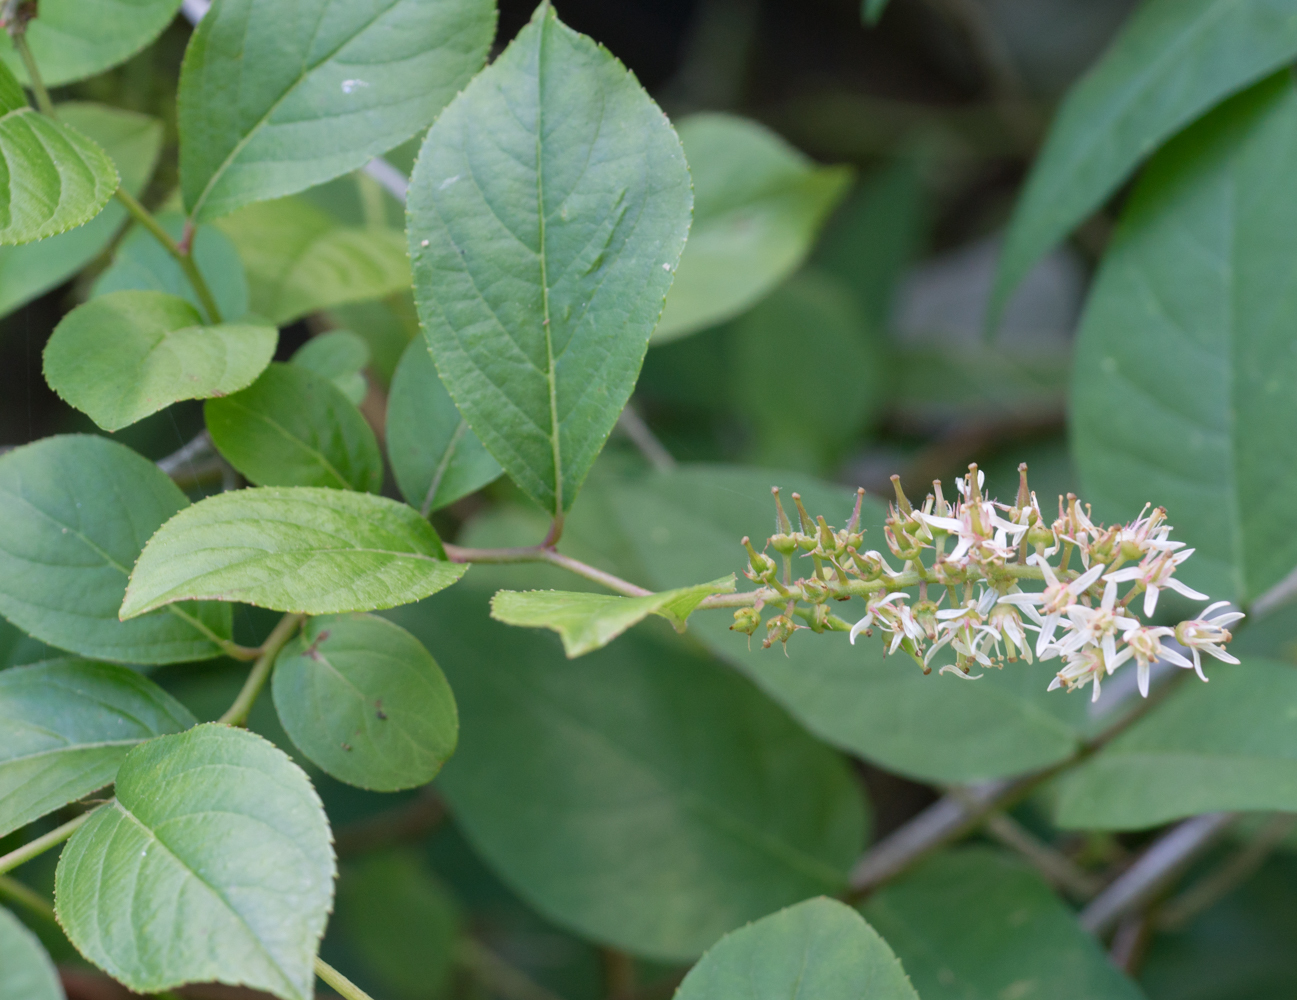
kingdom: Plantae
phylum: Tracheophyta
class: Magnoliopsida
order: Saxifragales
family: Iteaceae
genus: Itea
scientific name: Itea virginica
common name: Sweetspire
